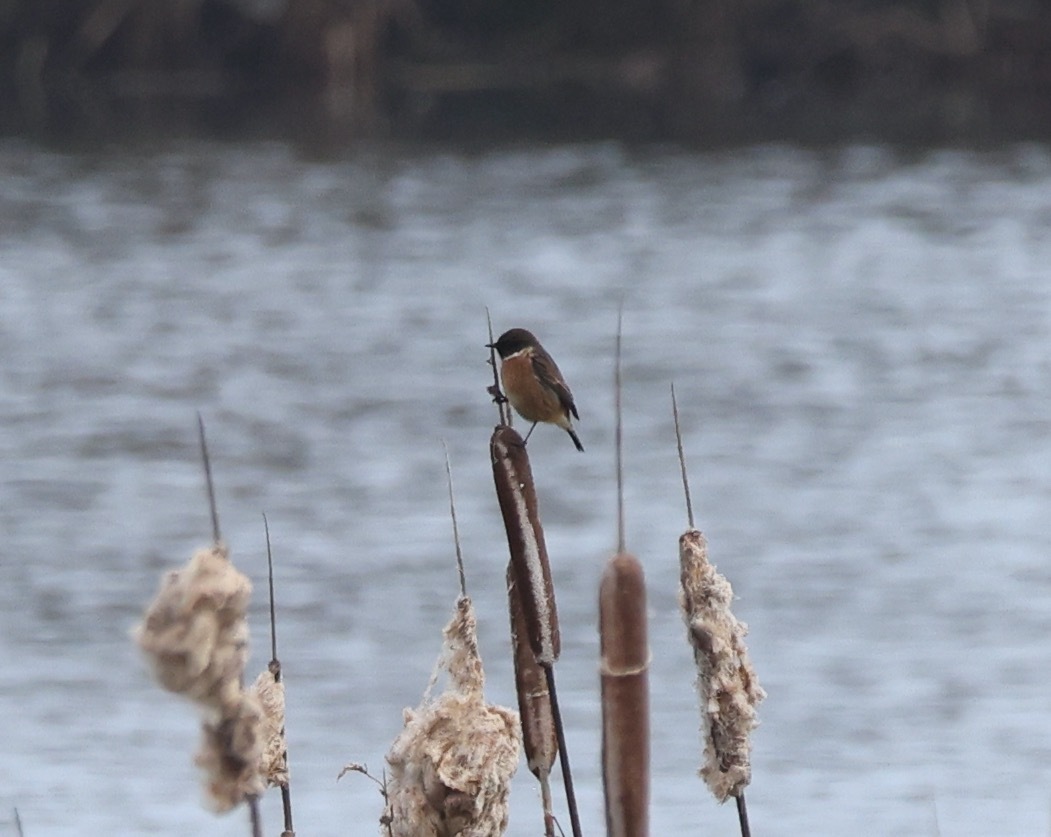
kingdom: Animalia
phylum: Chordata
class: Aves
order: Passeriformes
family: Muscicapidae
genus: Saxicola
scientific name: Saxicola rubicola
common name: European stonechat
